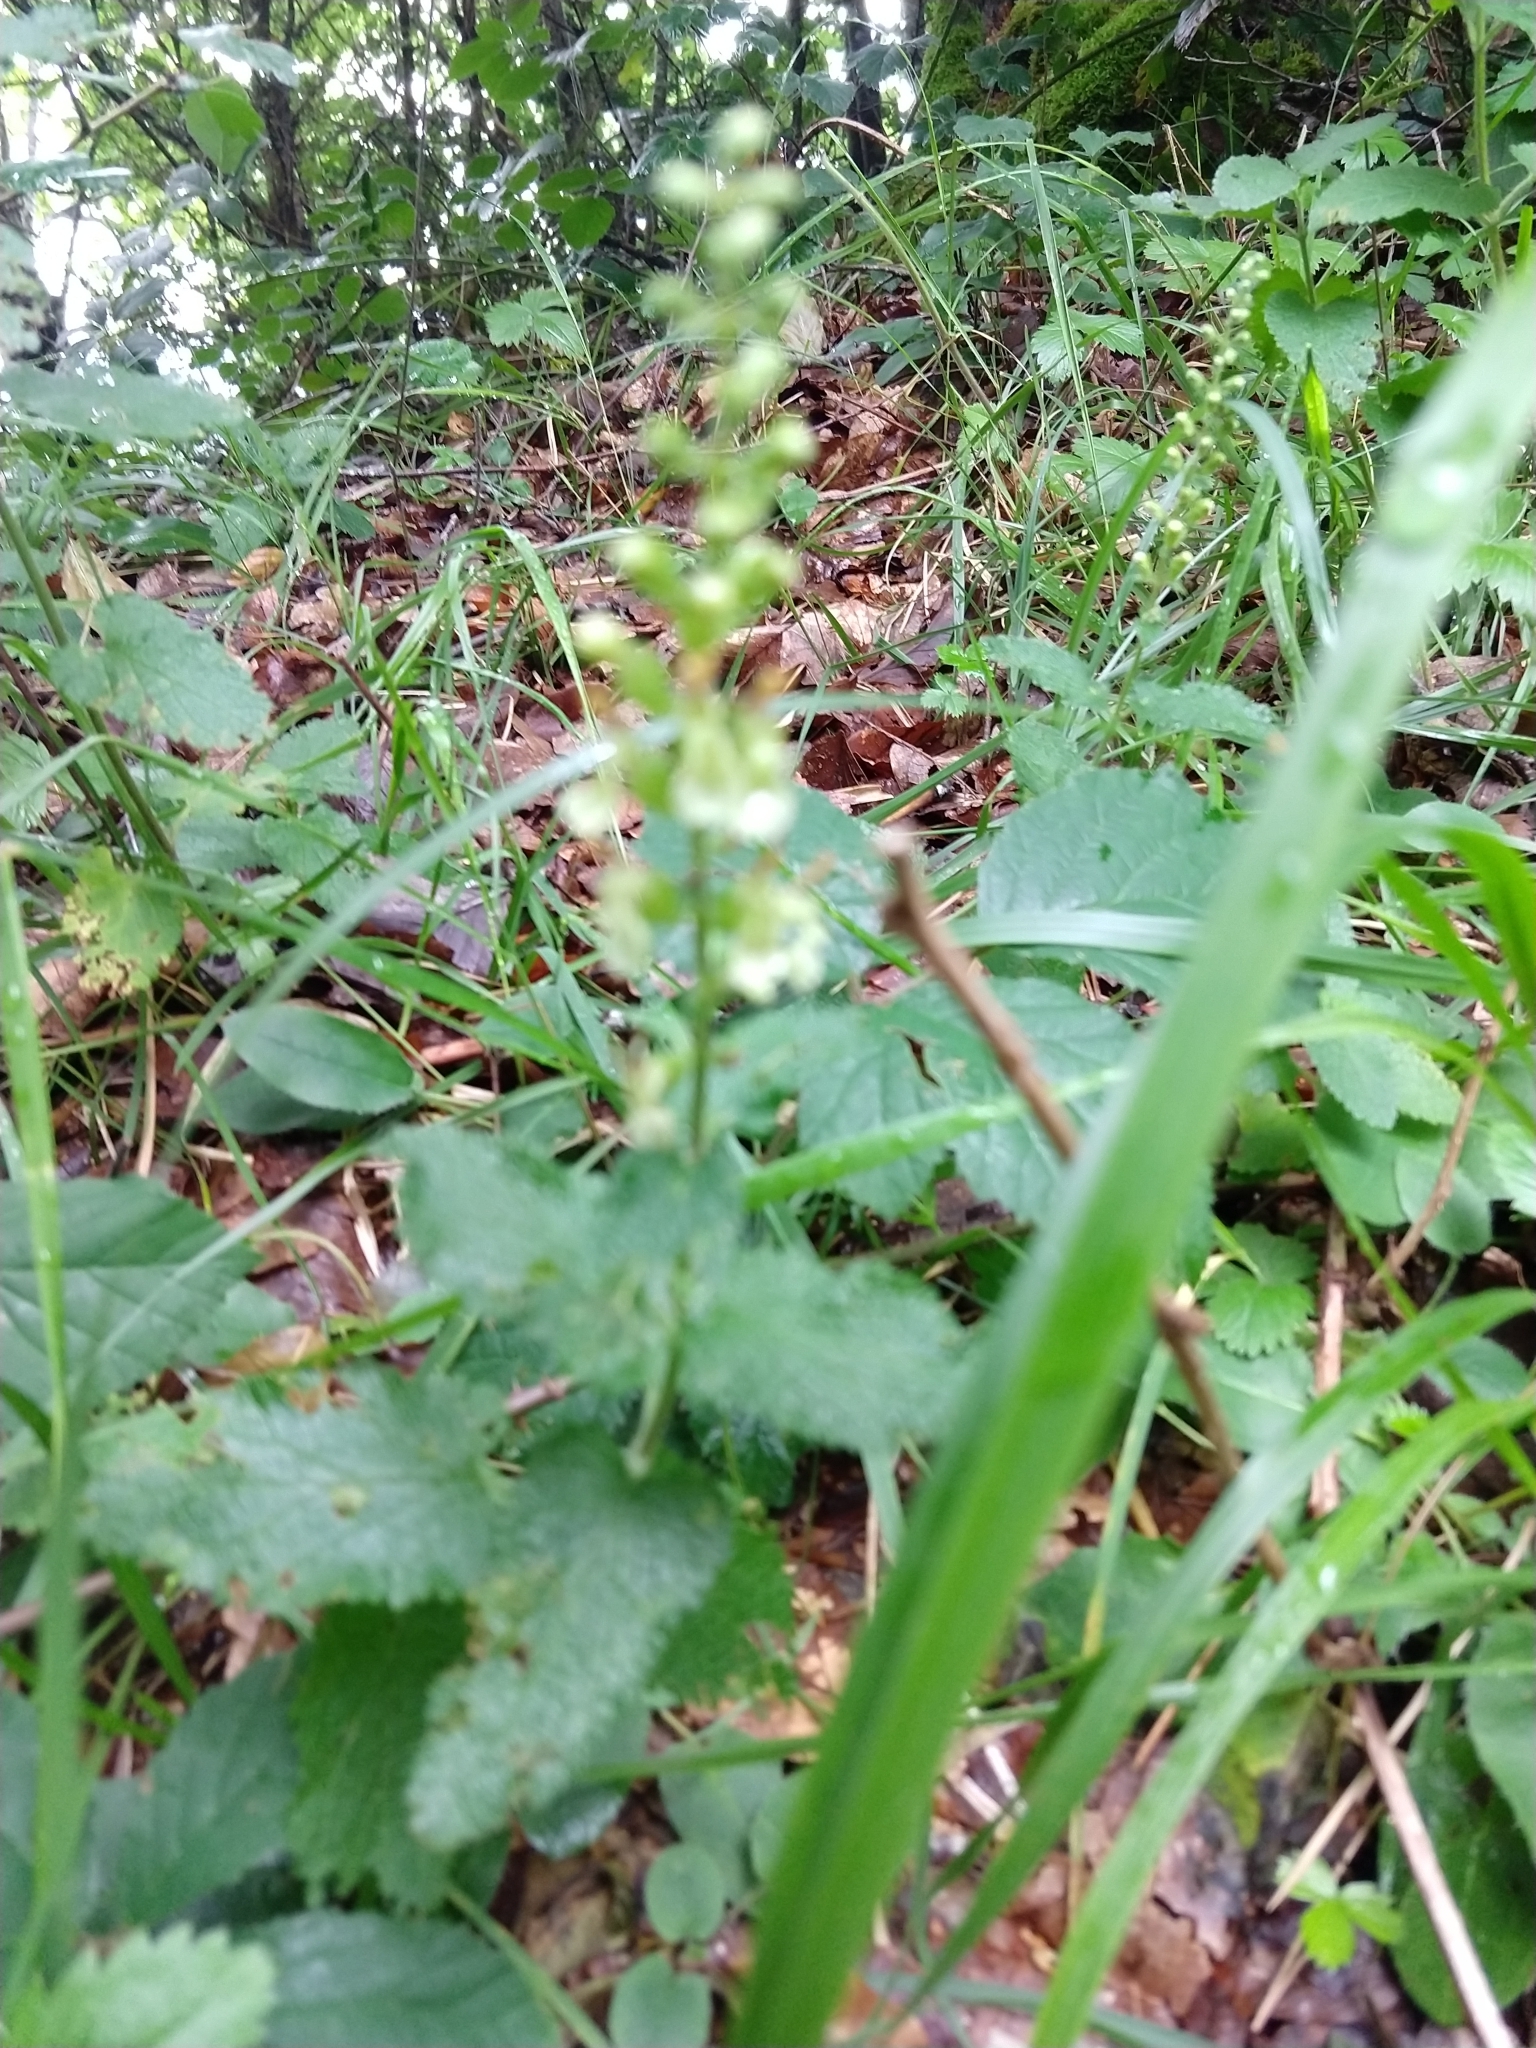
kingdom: Plantae
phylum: Tracheophyta
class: Magnoliopsida
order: Lamiales
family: Lamiaceae
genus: Teucrium
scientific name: Teucrium scorodonia
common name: Woodland germander
